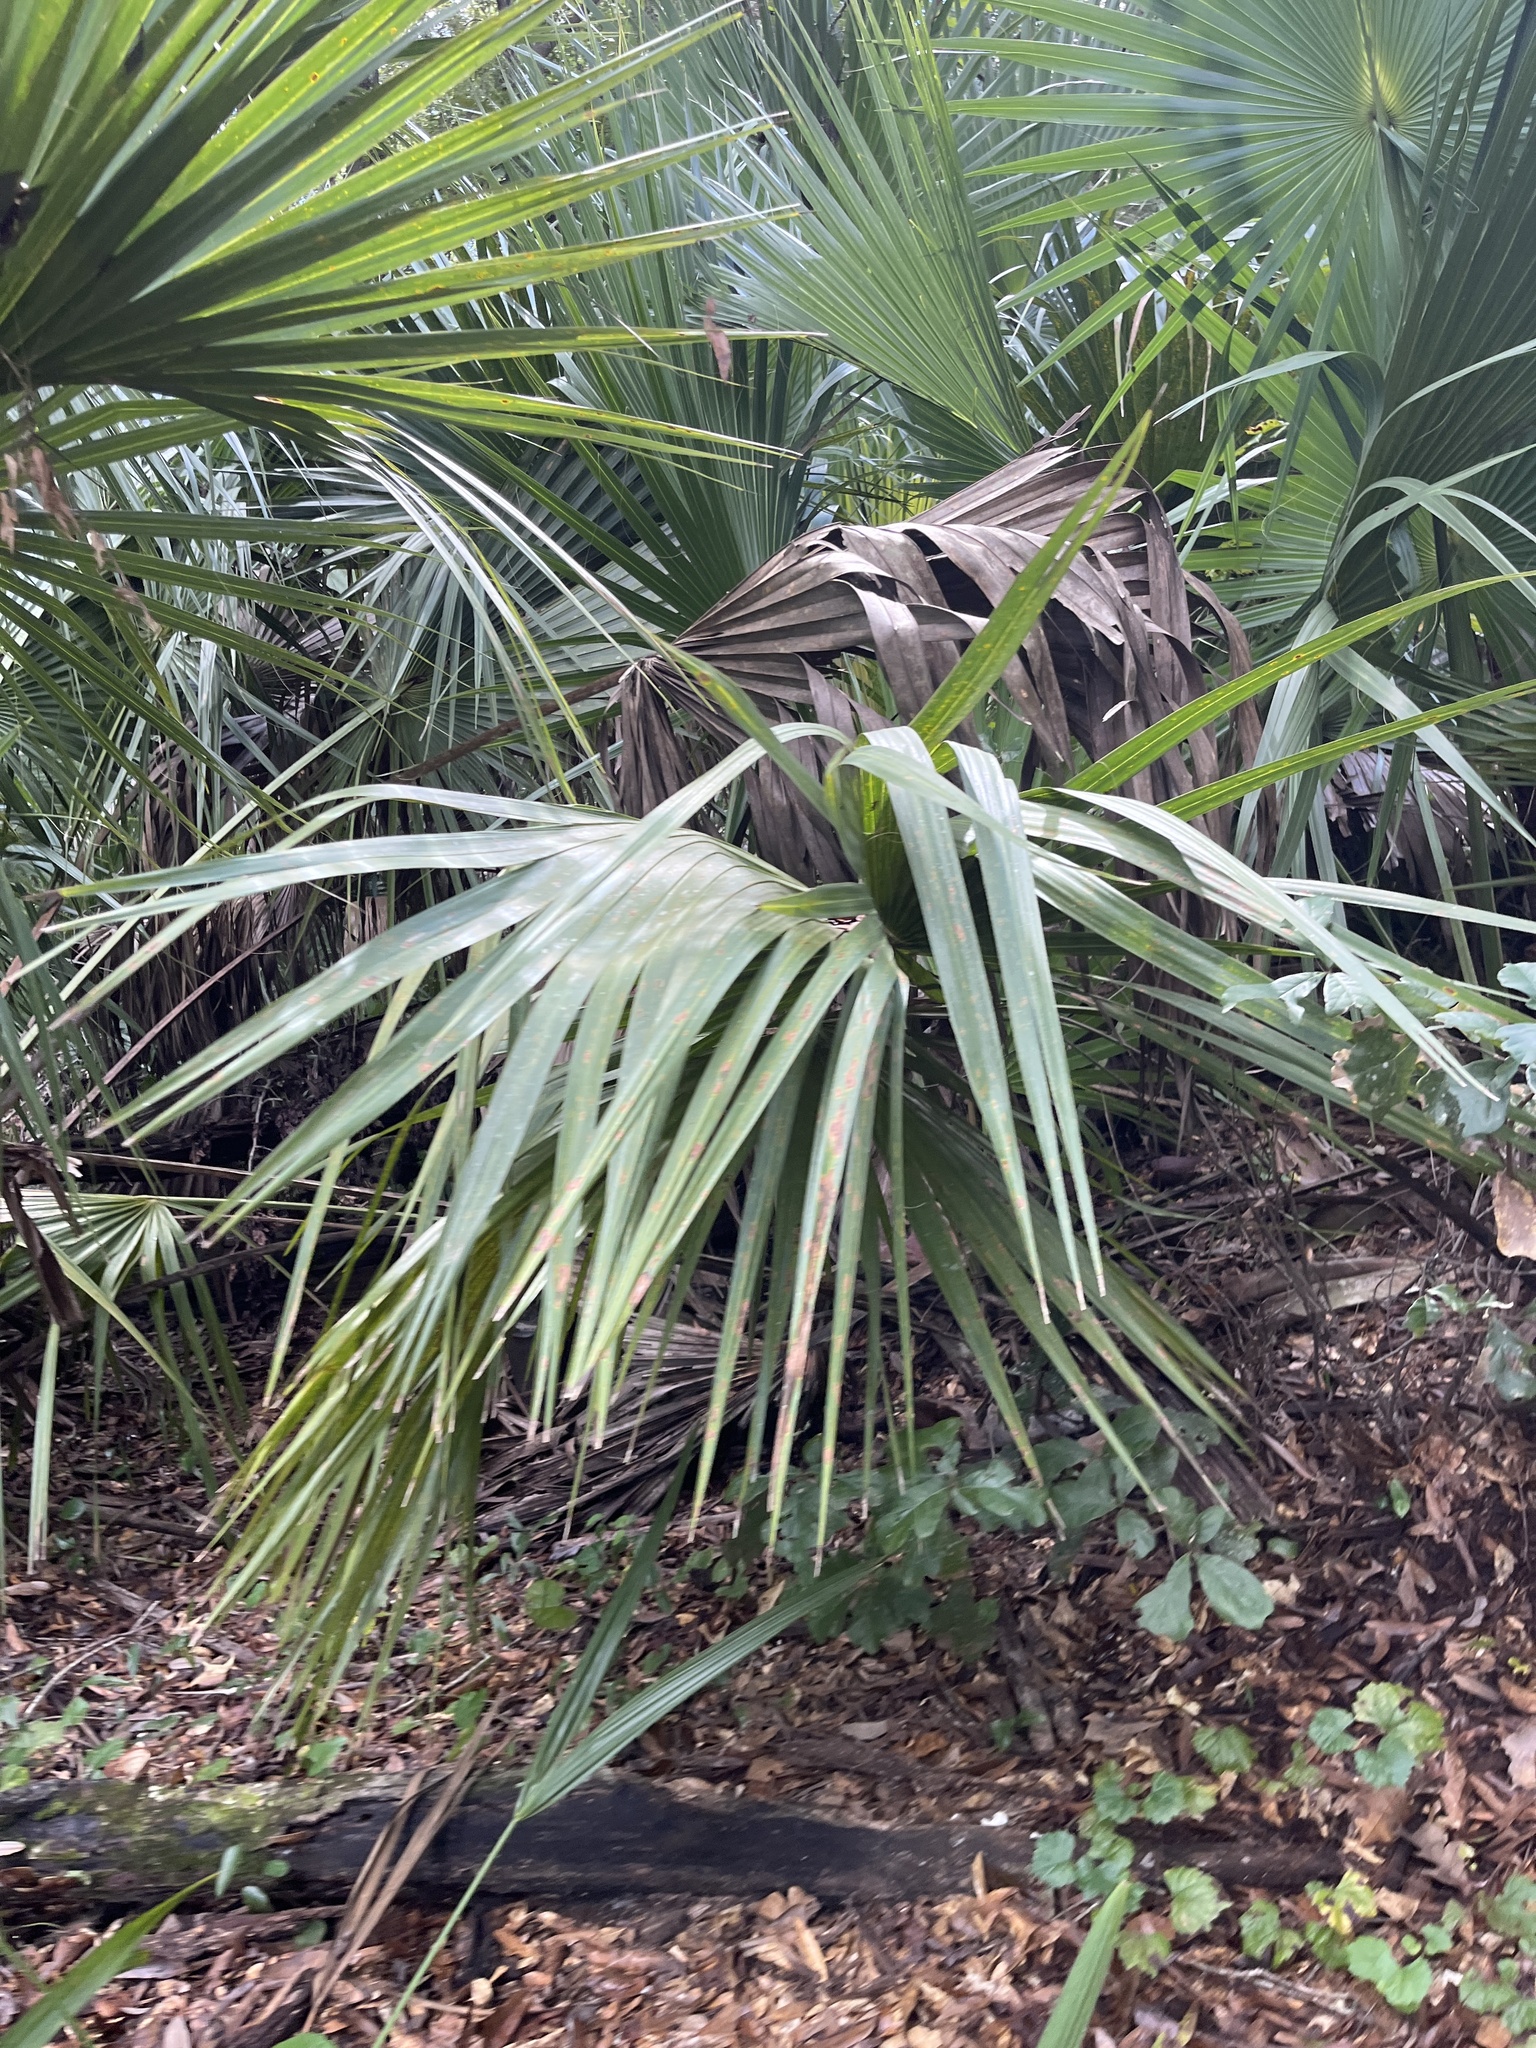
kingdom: Plantae
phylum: Tracheophyta
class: Liliopsida
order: Arecales
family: Arecaceae
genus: Sabal
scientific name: Sabal palmetto
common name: Blue palmetto
